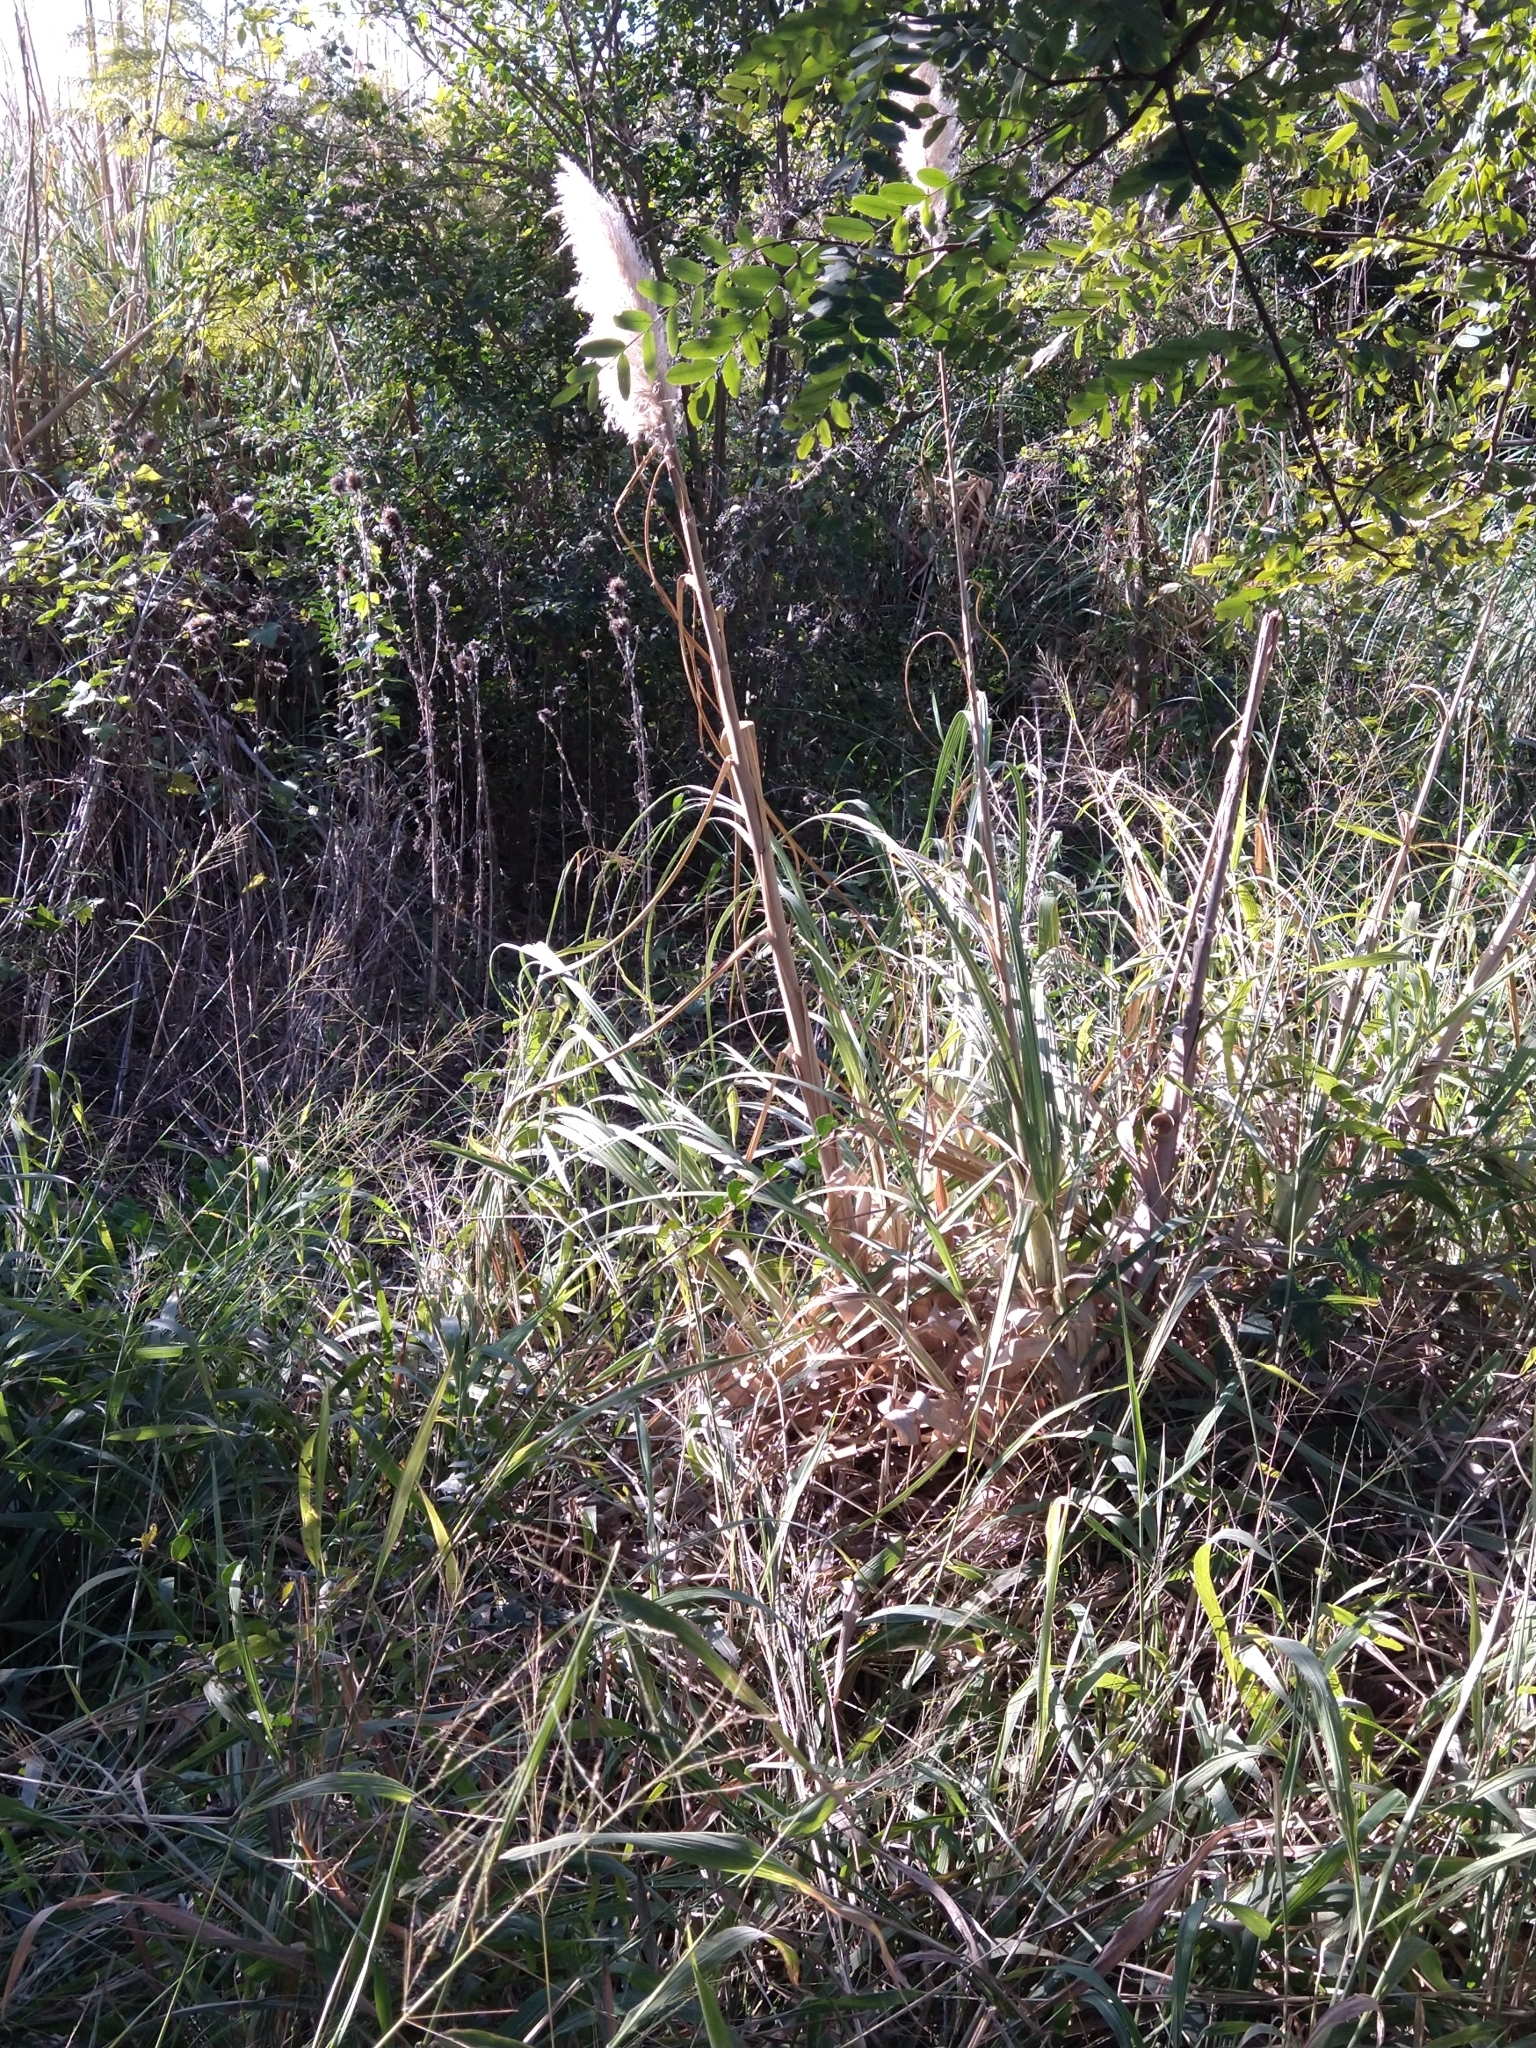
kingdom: Plantae
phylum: Tracheophyta
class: Liliopsida
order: Poales
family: Poaceae
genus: Cortaderia
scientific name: Cortaderia selloana
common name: Uruguayan pampas grass
